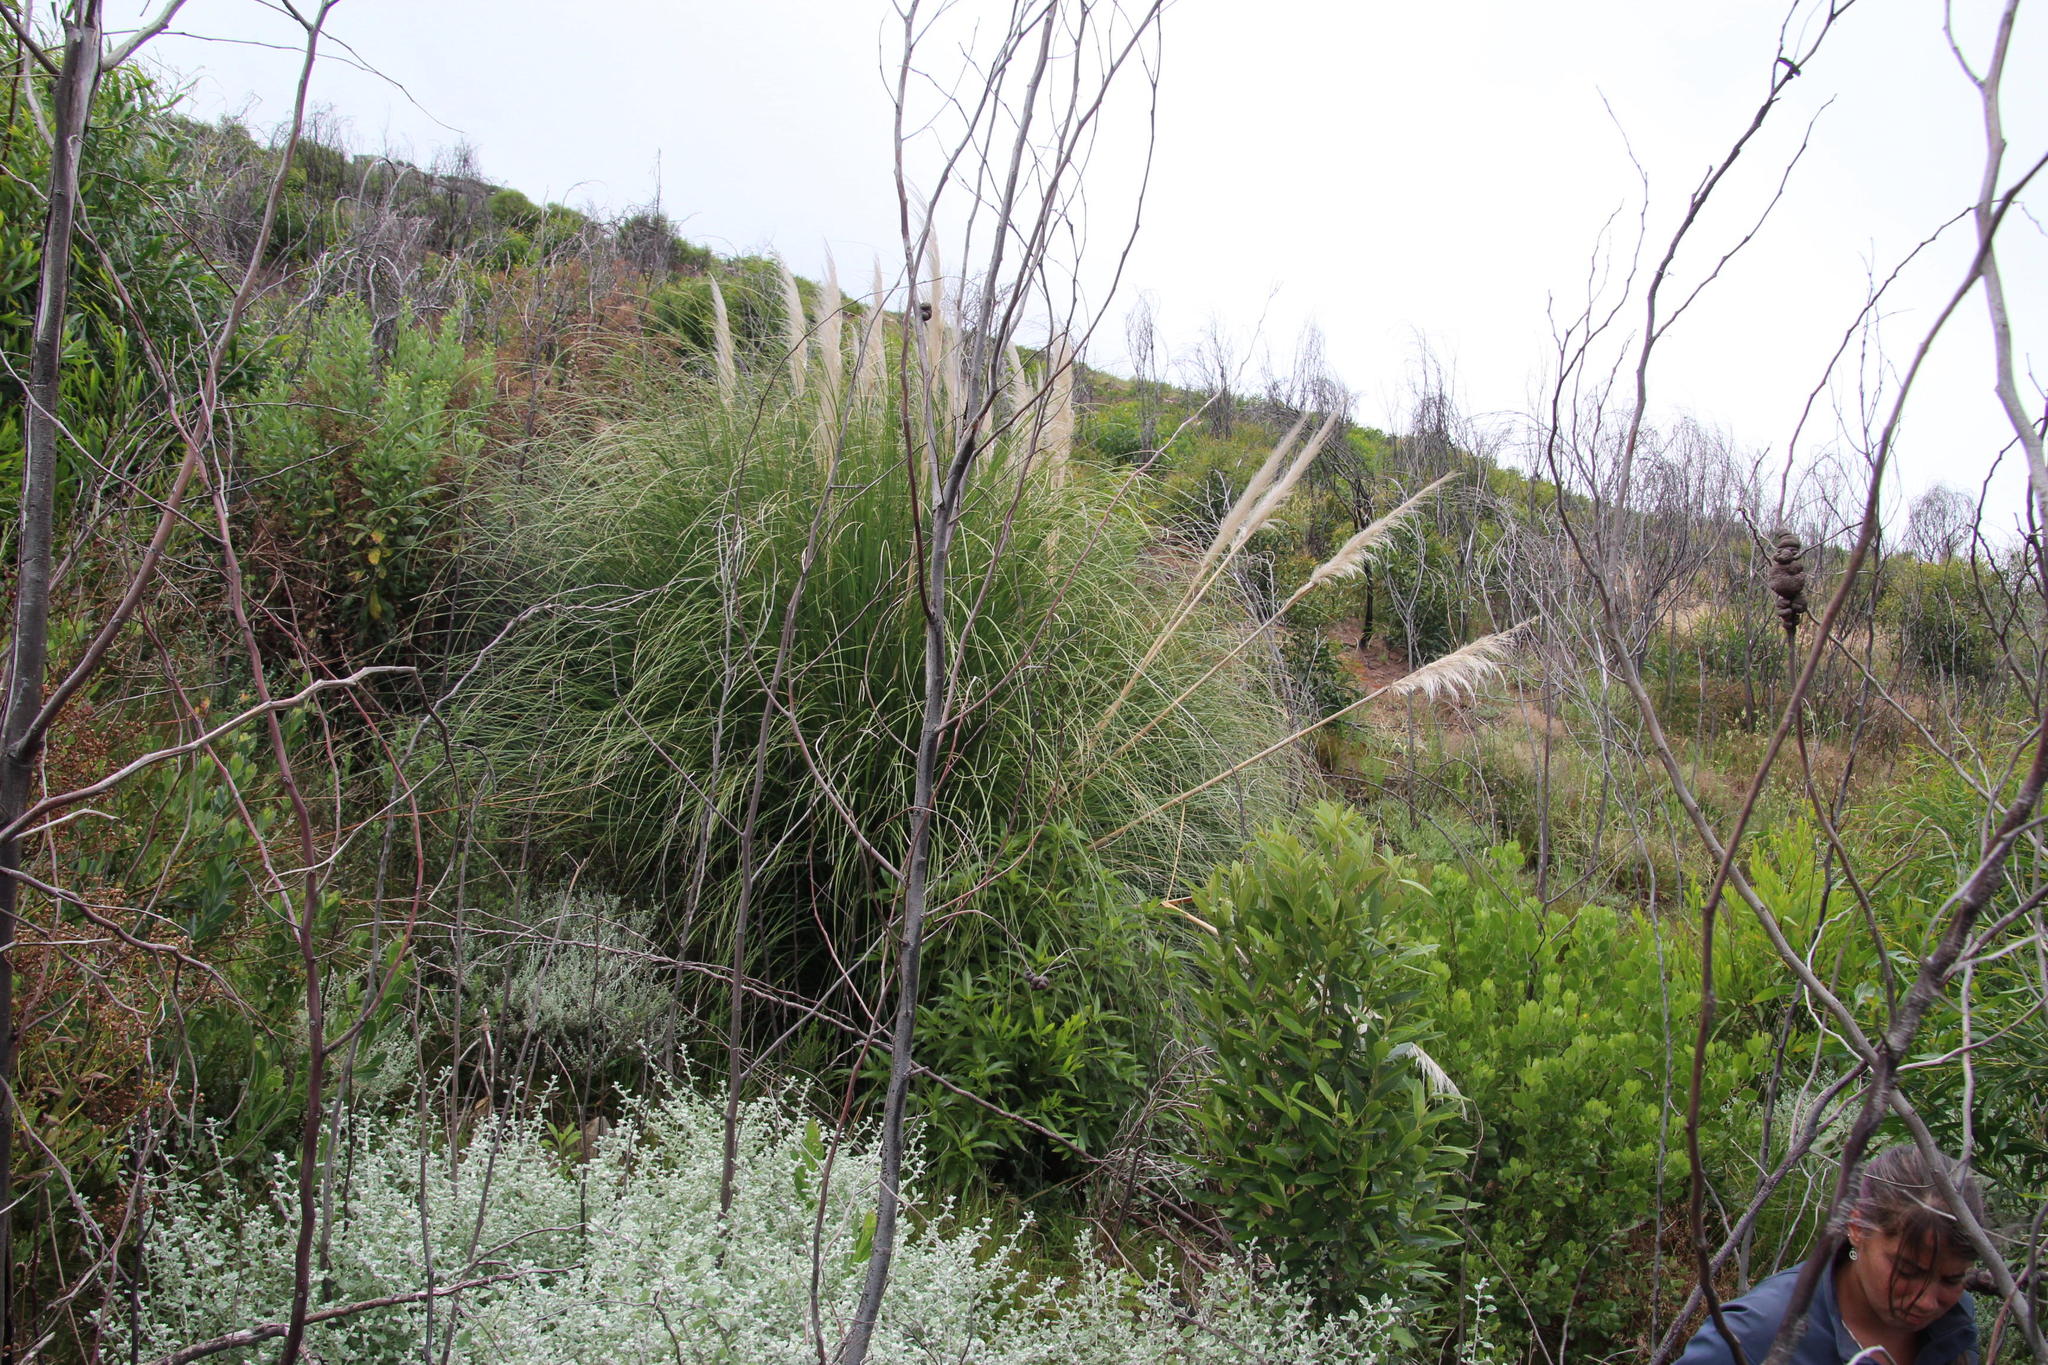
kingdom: Plantae
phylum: Tracheophyta
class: Liliopsida
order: Poales
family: Poaceae
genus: Cortaderia
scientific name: Cortaderia selloana
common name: Uruguayan pampas grass
